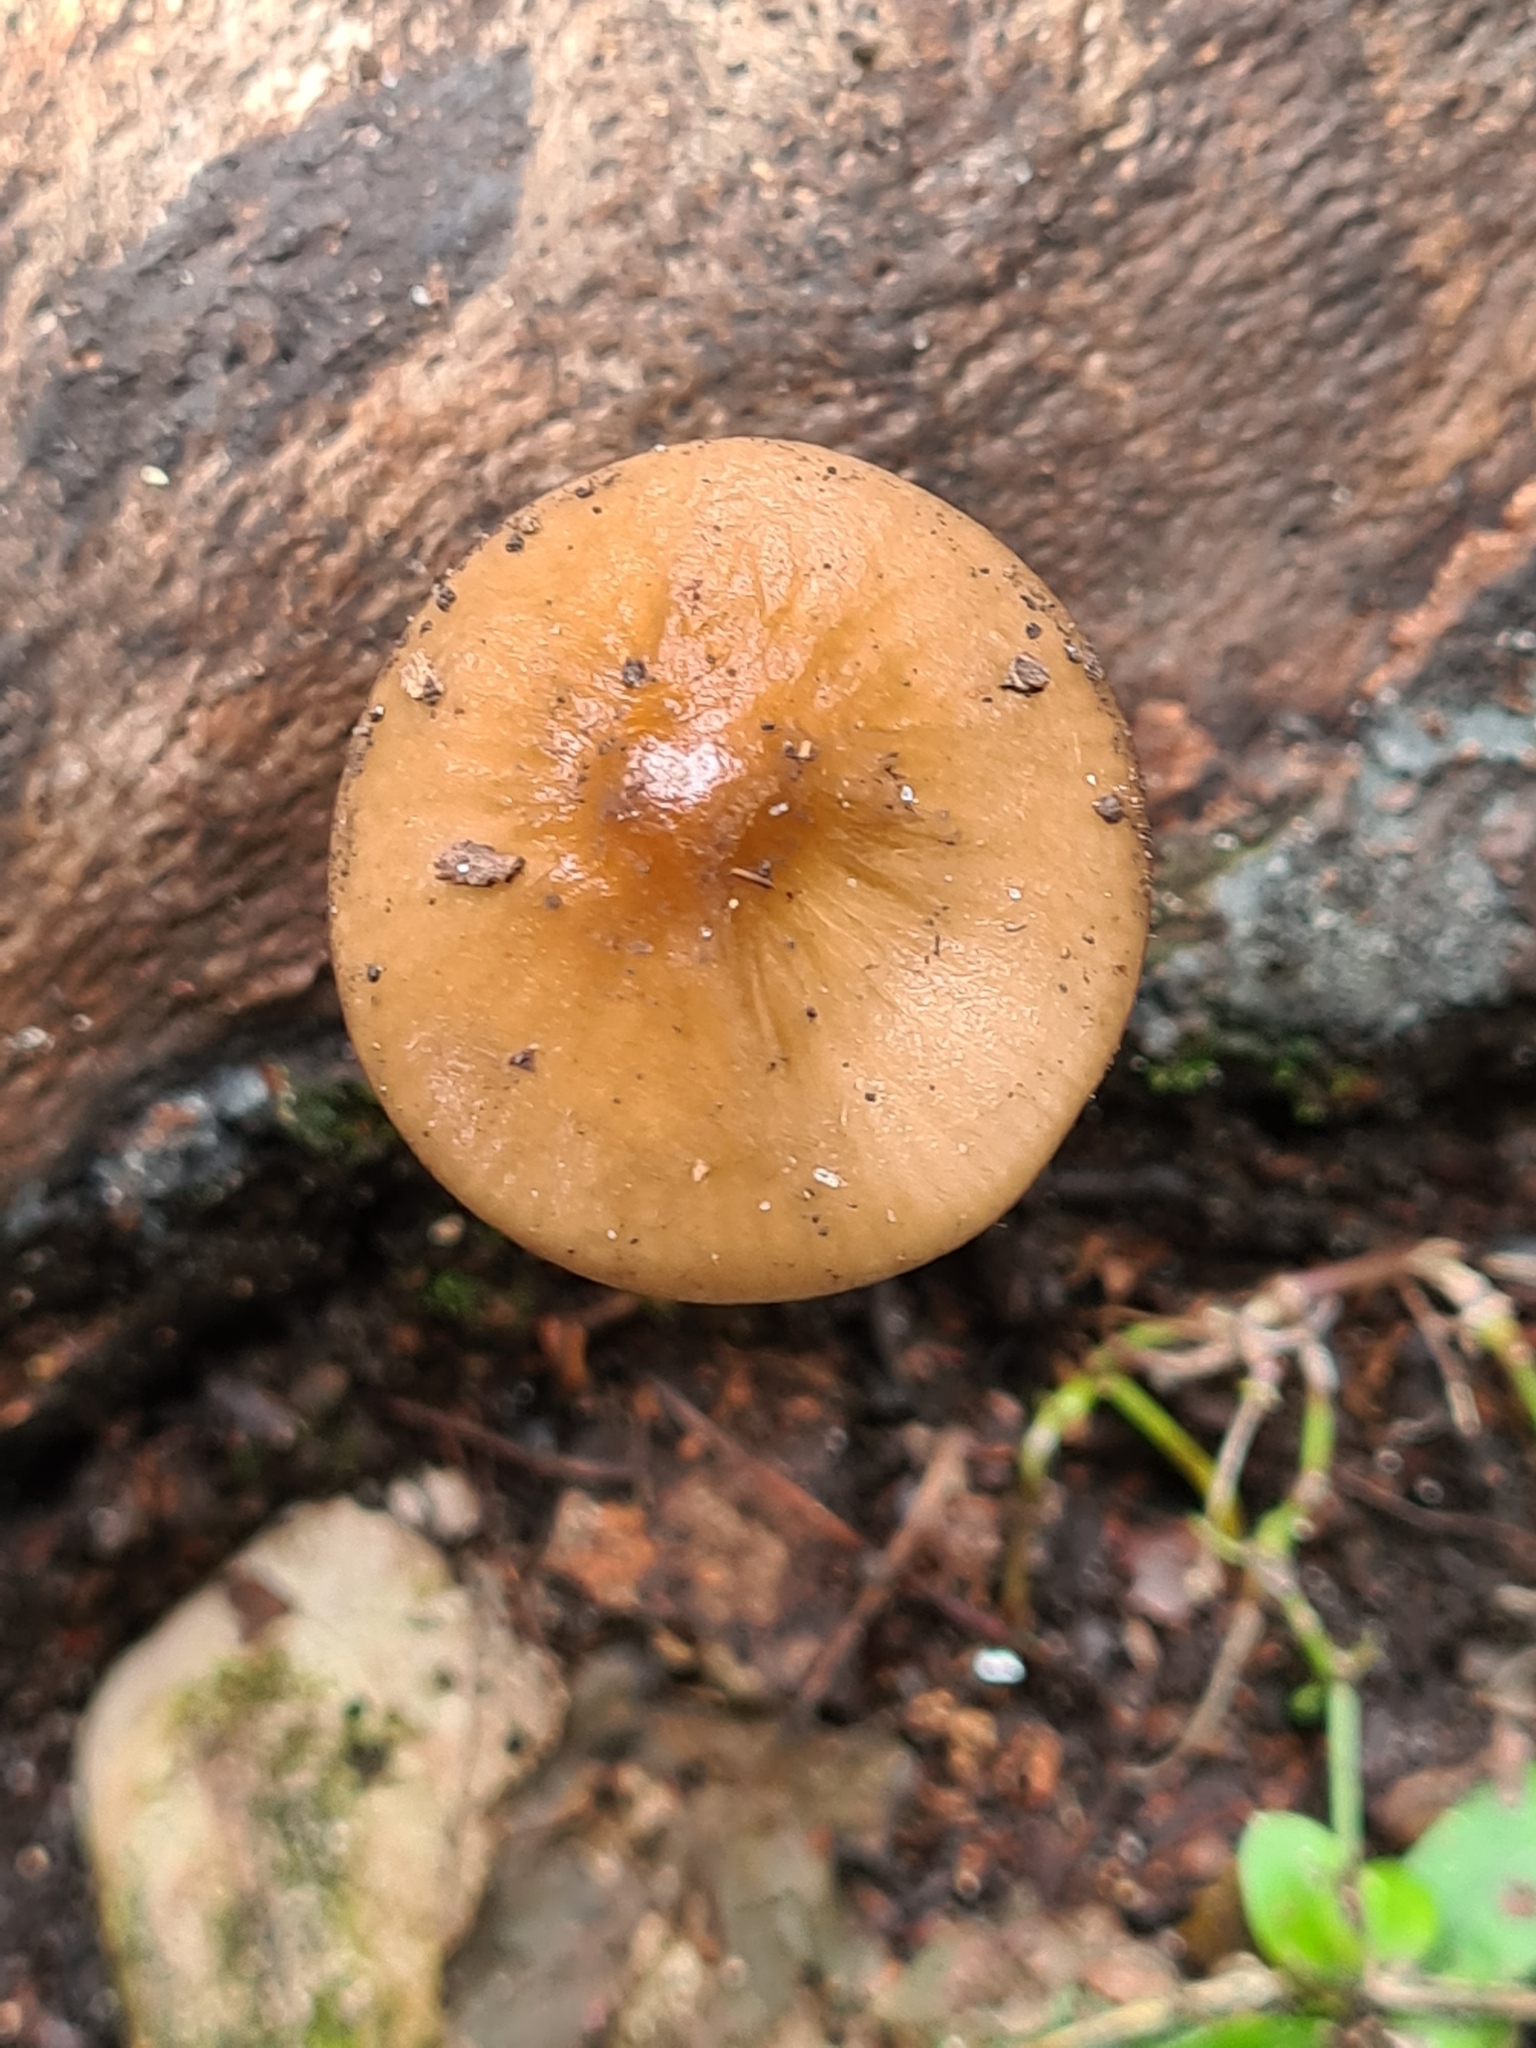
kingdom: Fungi
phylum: Basidiomycota
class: Agaricomycetes
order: Agaricales
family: Physalacriaceae
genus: Hymenopellis
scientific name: Hymenopellis radicata
